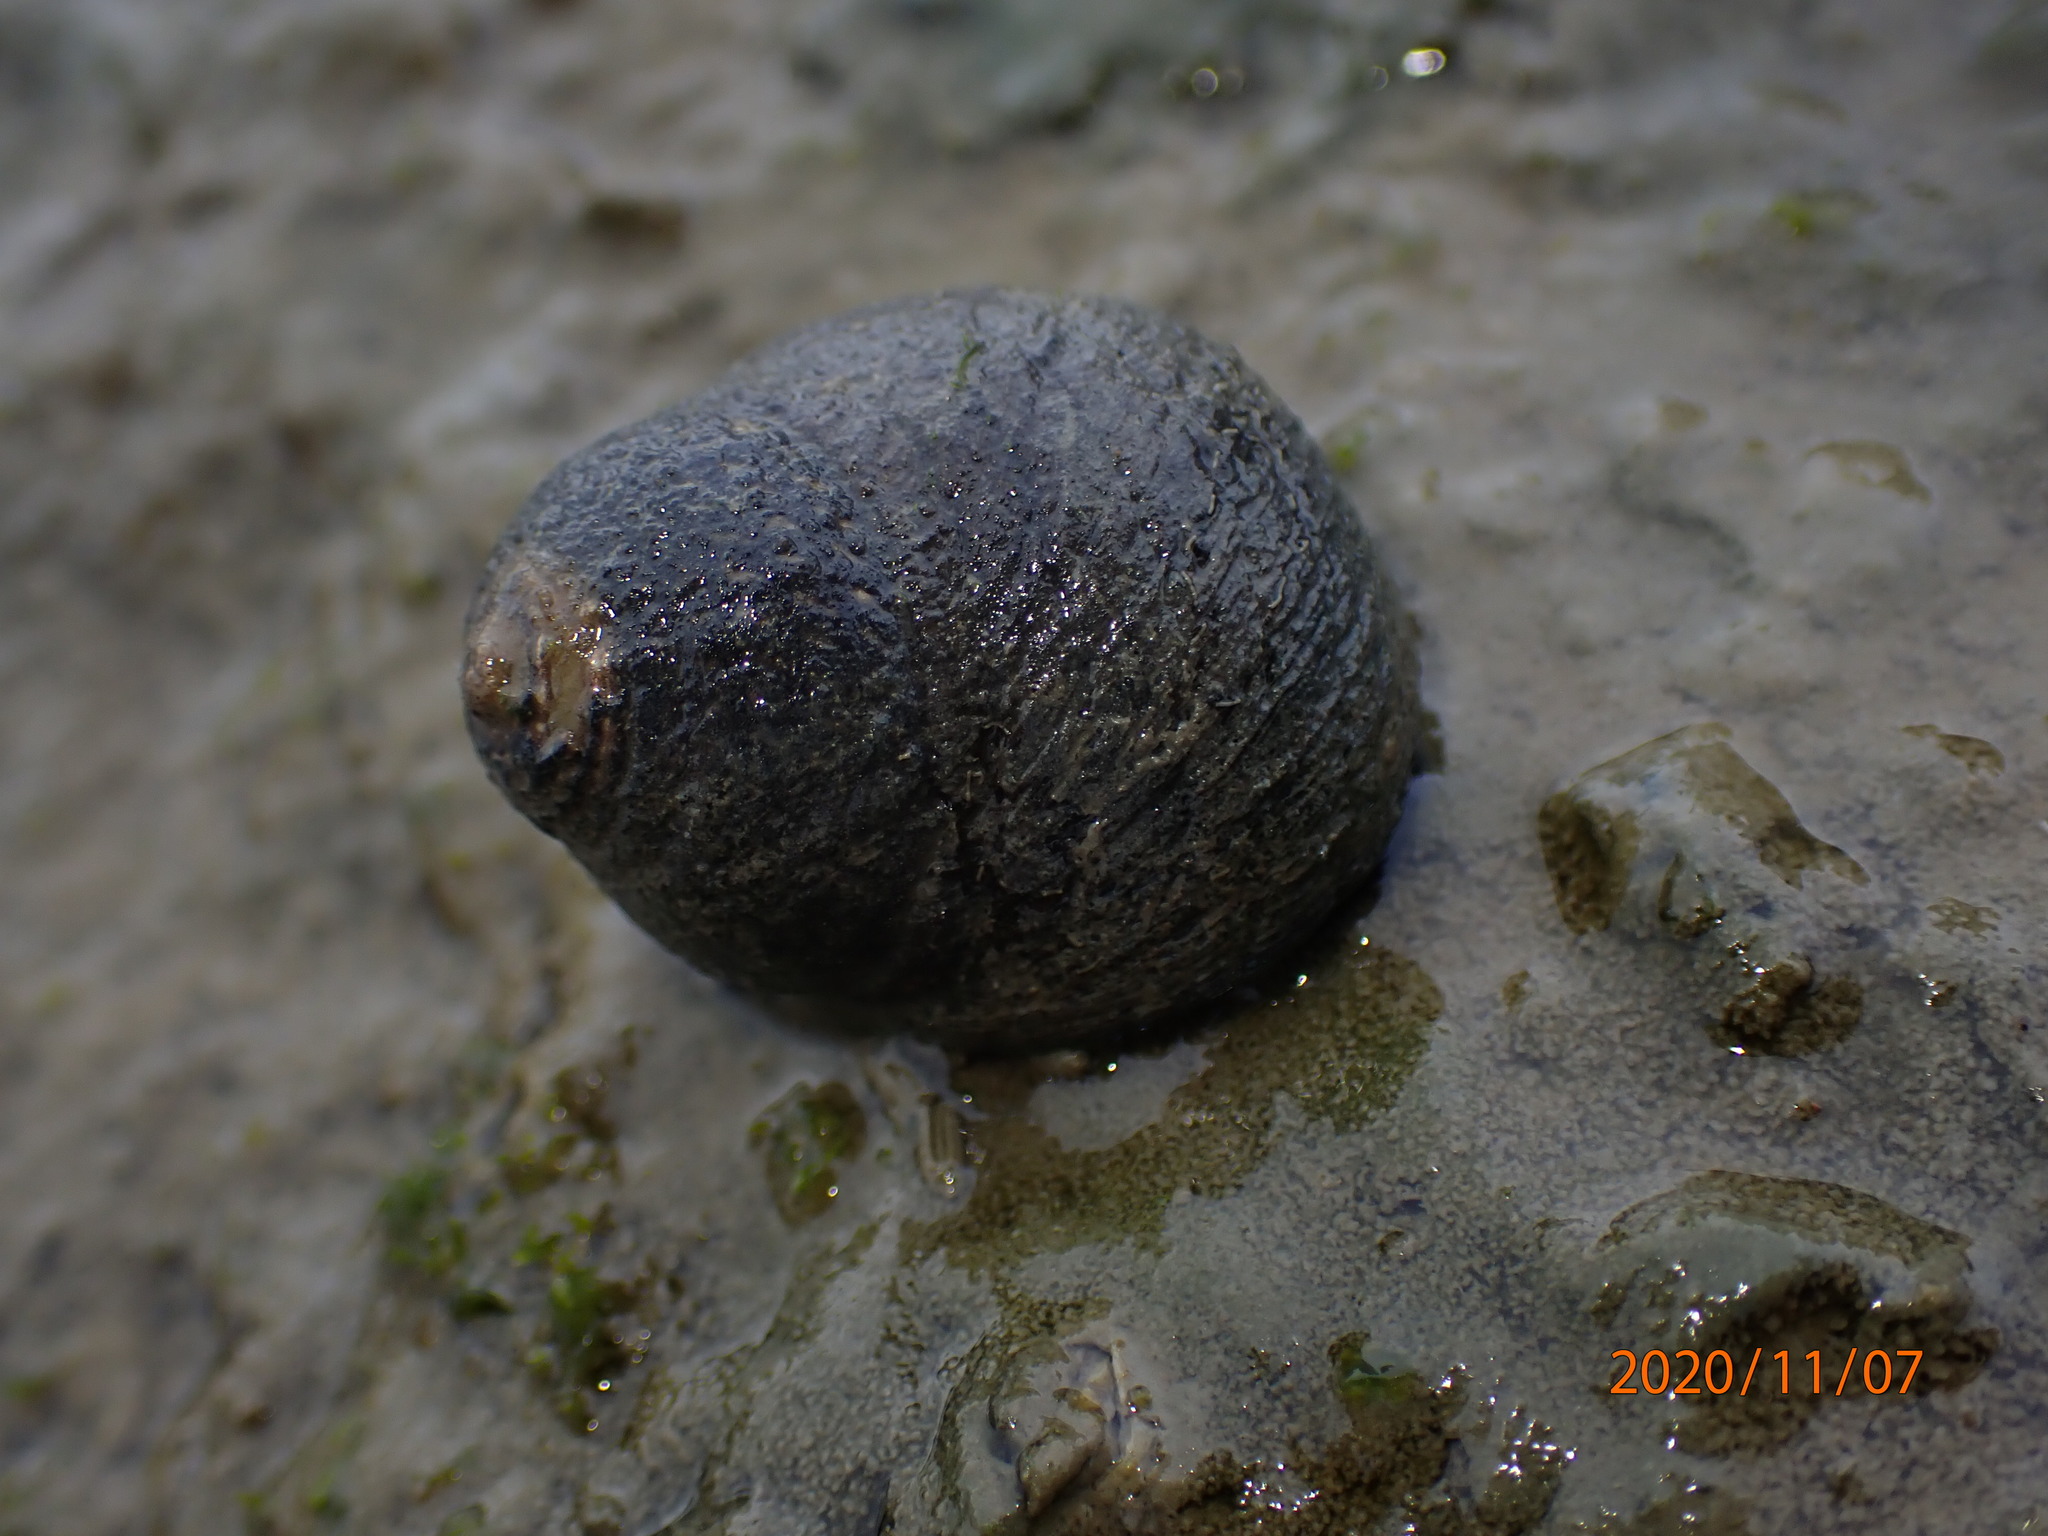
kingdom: Animalia
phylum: Mollusca
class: Gastropoda
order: Trochida
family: Trochidae
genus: Diloma
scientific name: Diloma aethiops
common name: Scorched monodont
